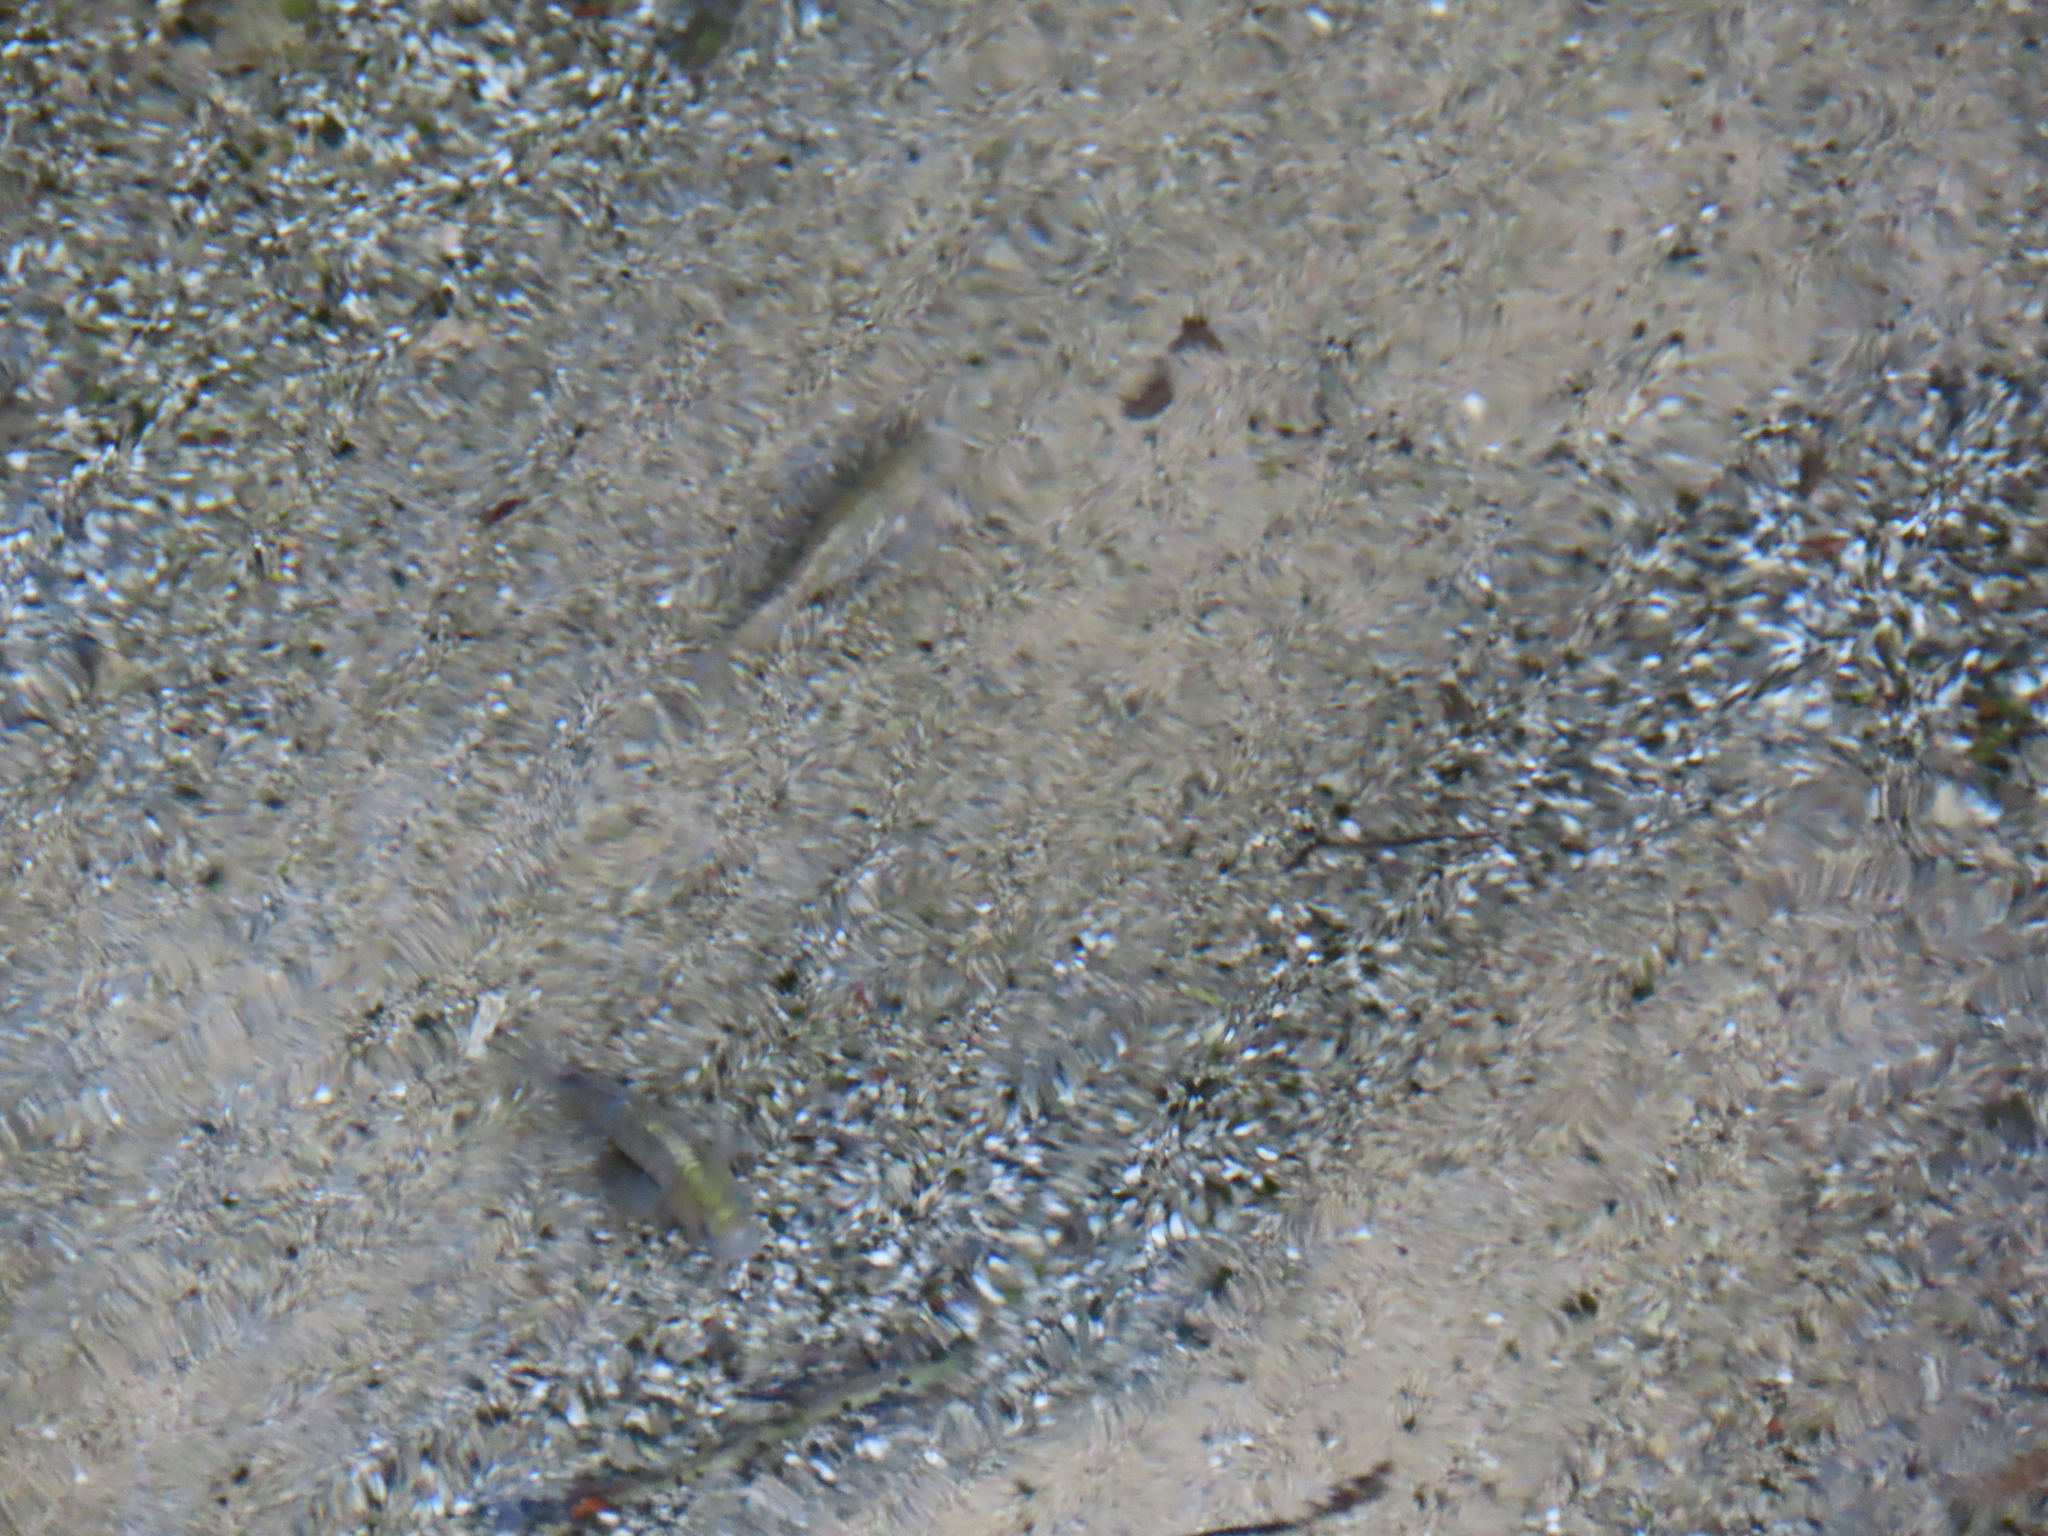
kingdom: Animalia
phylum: Chordata
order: Cyprinodontiformes
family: Cyprinodontidae
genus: Cyprinodon
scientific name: Cyprinodon nevadensis
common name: Amargosa pupfish
